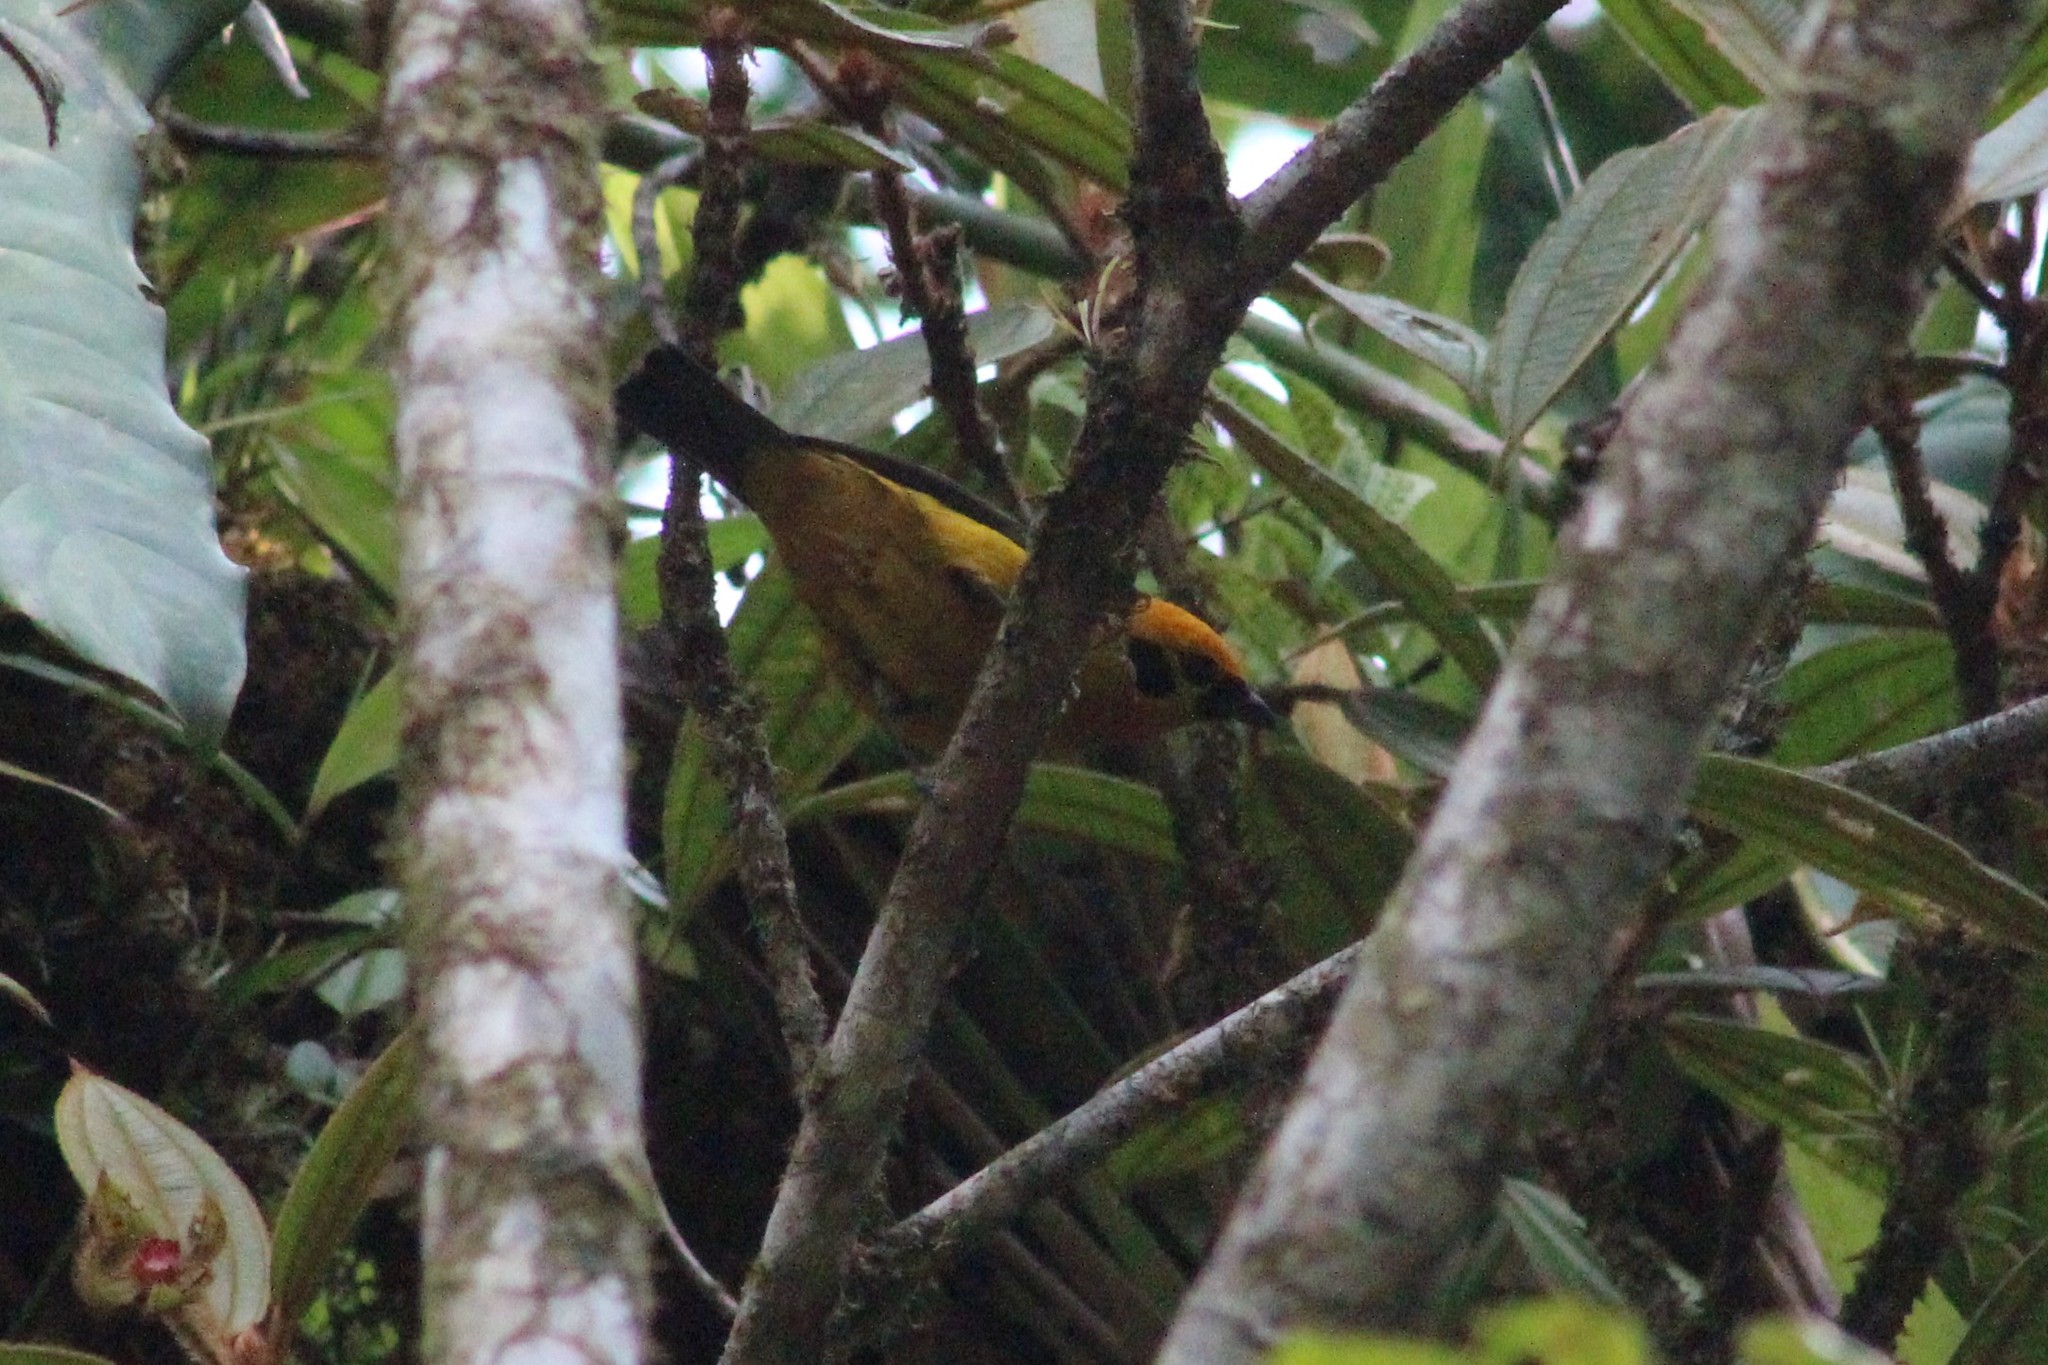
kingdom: Animalia
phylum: Chordata
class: Aves
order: Passeriformes
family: Thraupidae
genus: Tangara
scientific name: Tangara arthus
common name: Golden tanager
